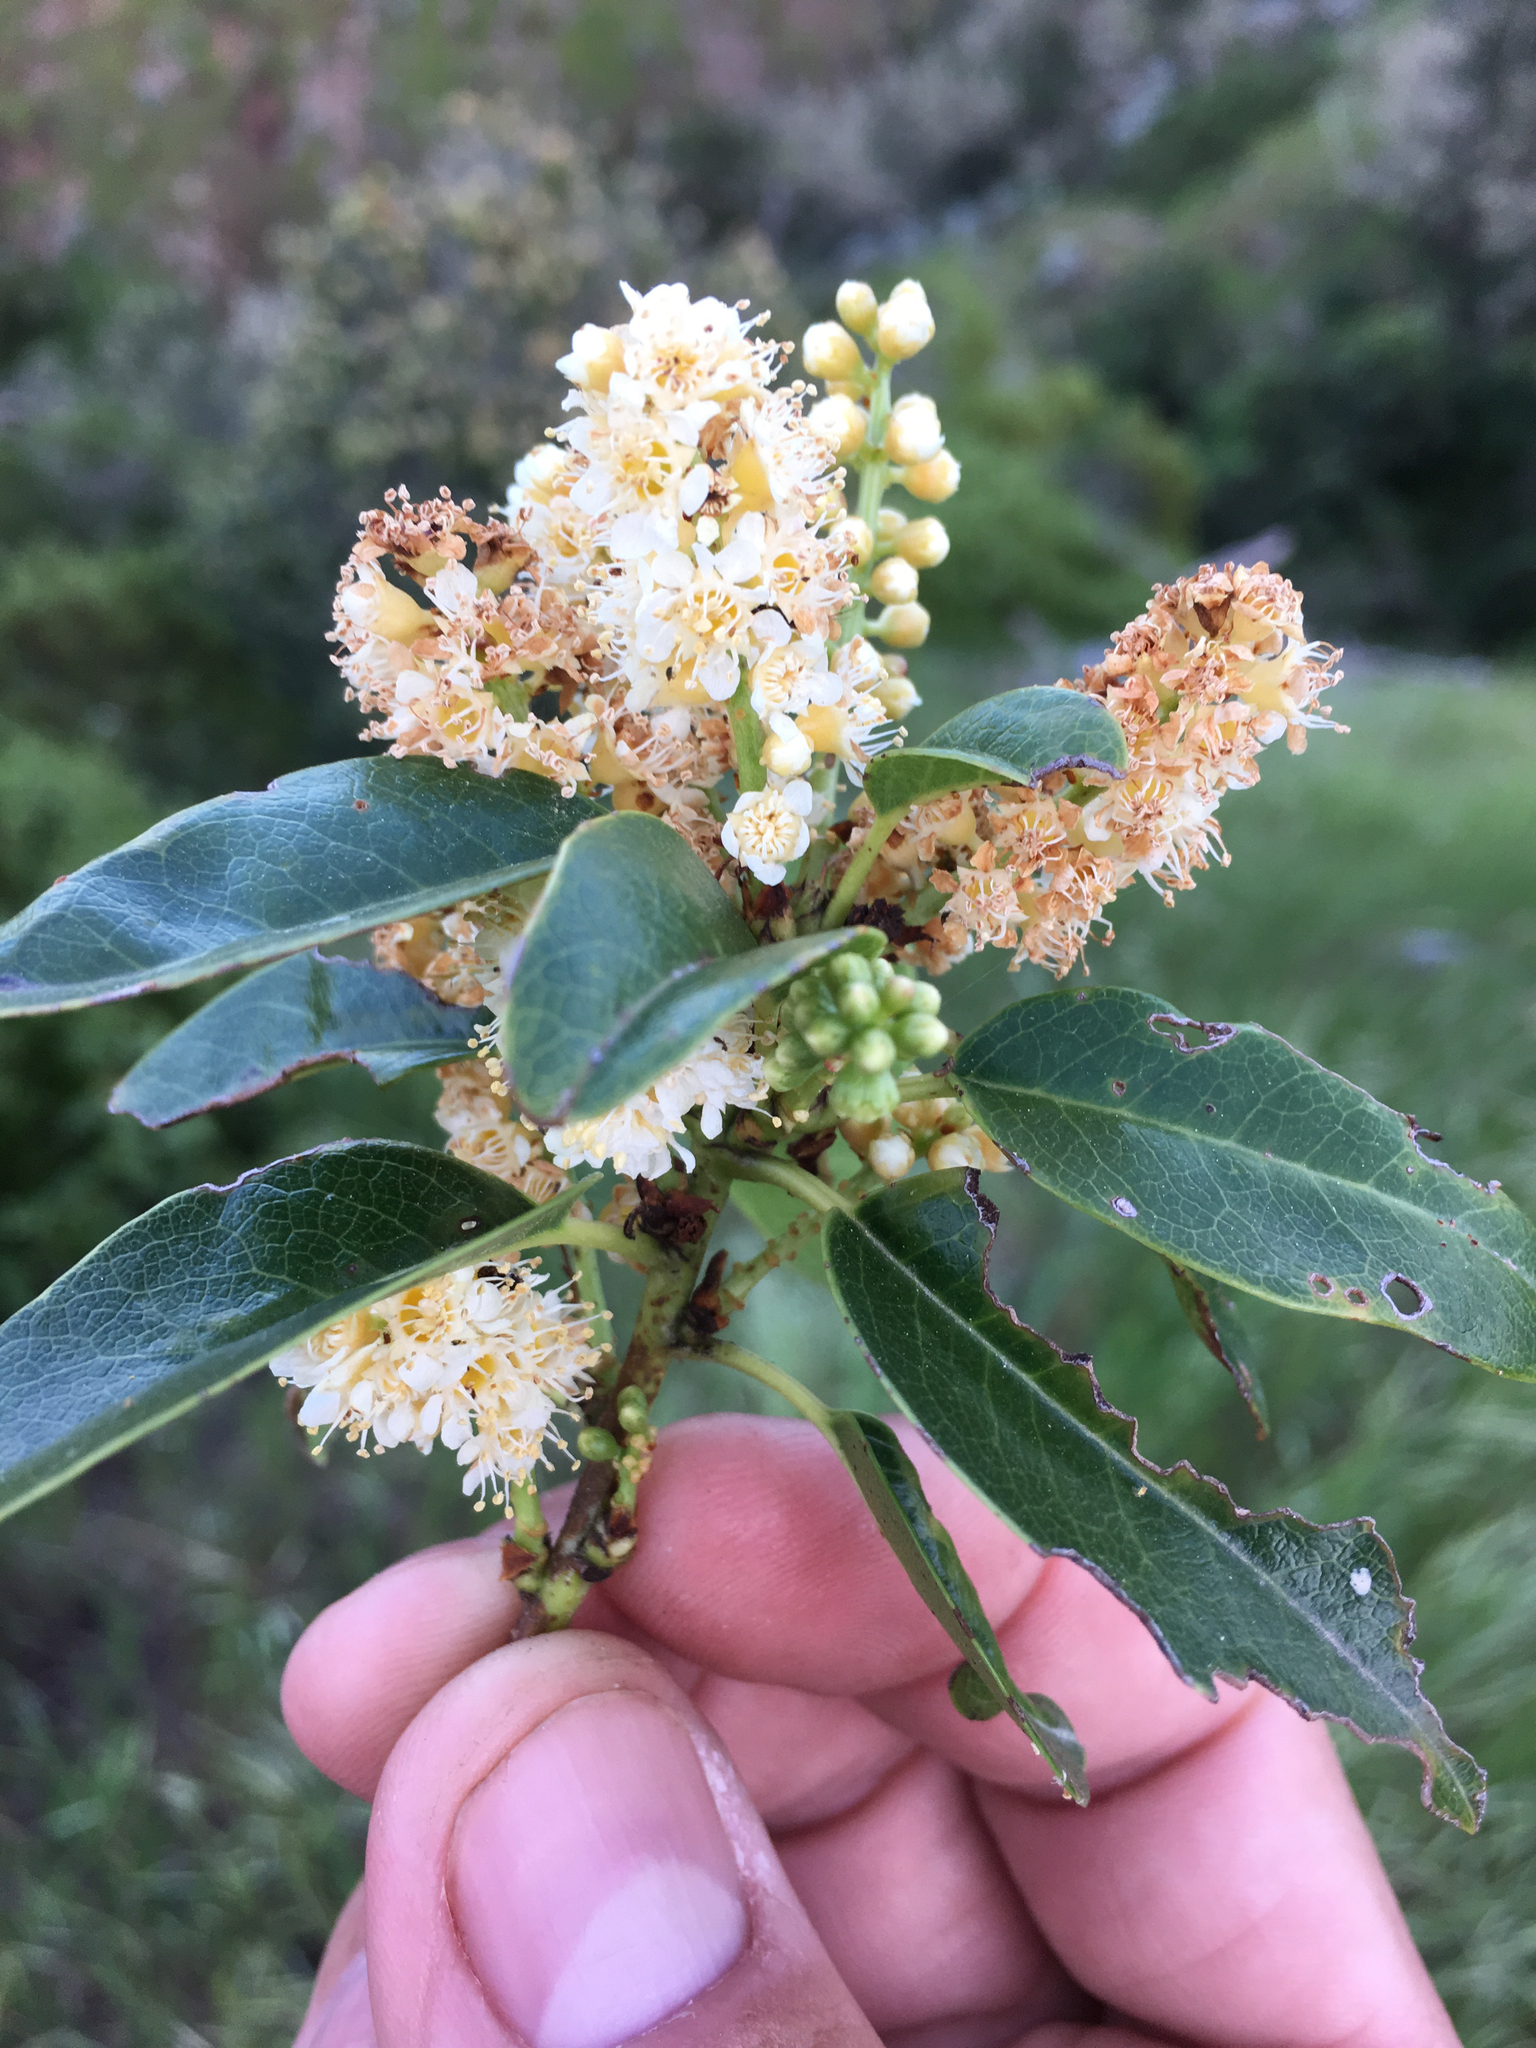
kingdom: Plantae
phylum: Tracheophyta
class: Magnoliopsida
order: Rosales
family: Rosaceae
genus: Prunus
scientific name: Prunus ilicifolia
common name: Hollyleaf cherry
